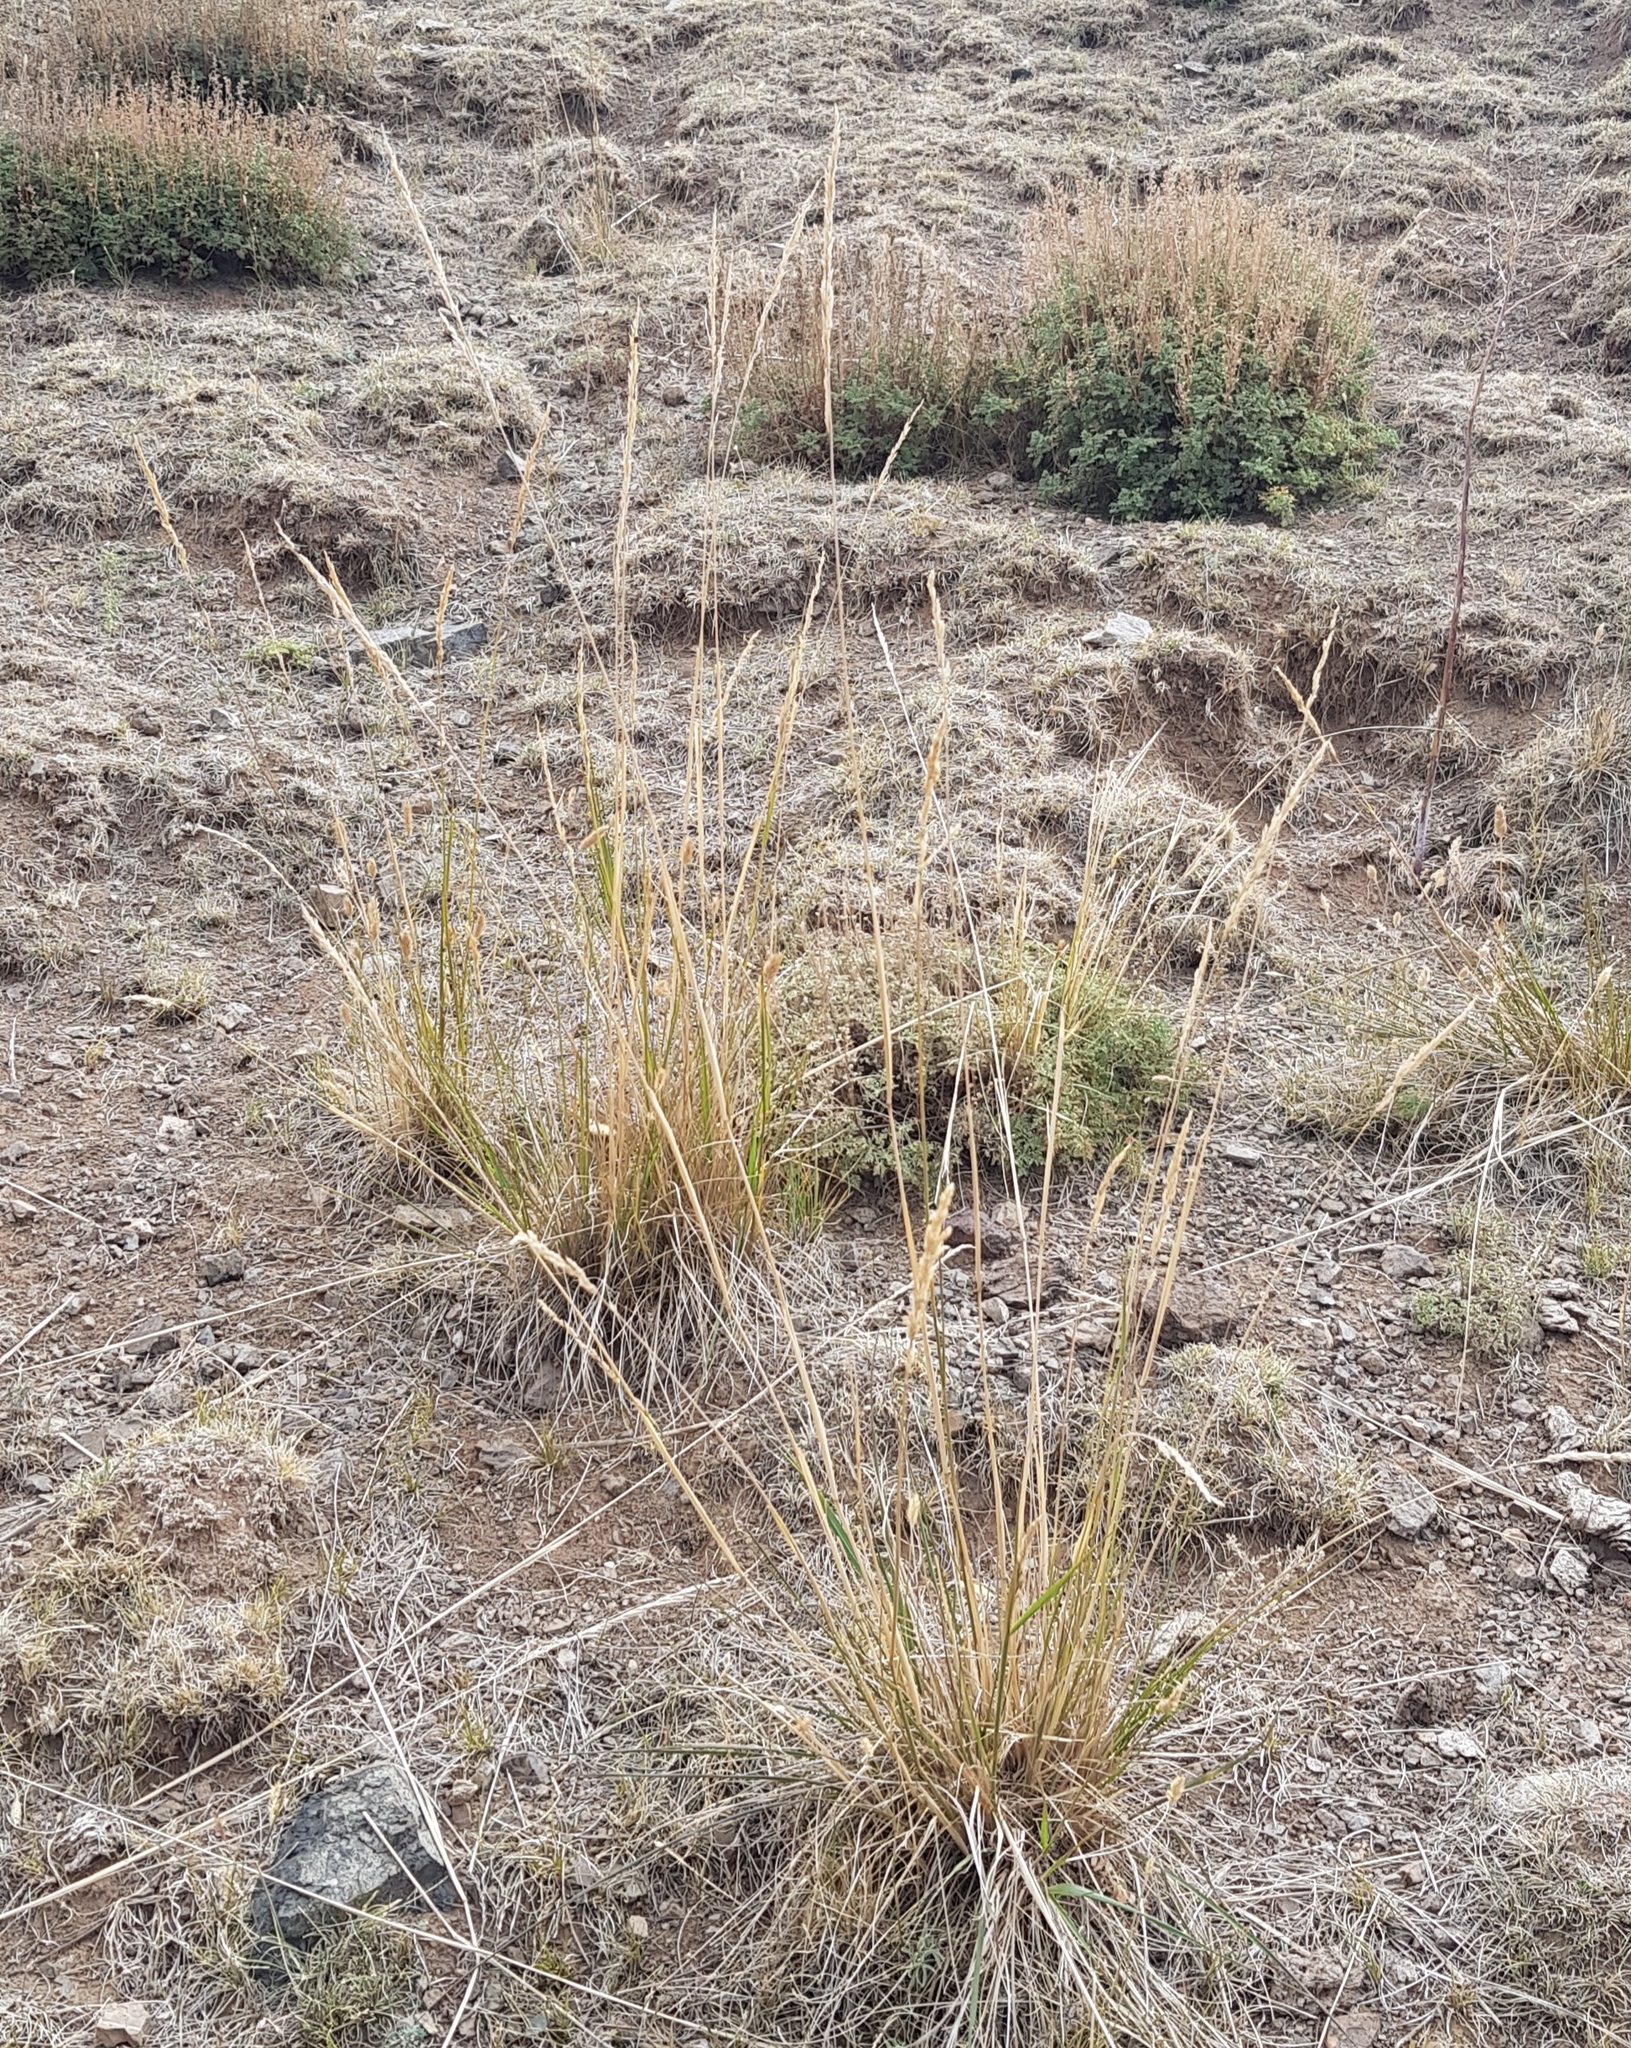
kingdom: Plantae
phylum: Tracheophyta
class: Liliopsida
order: Poales
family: Poaceae
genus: Neotrinia
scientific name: Neotrinia splendens
